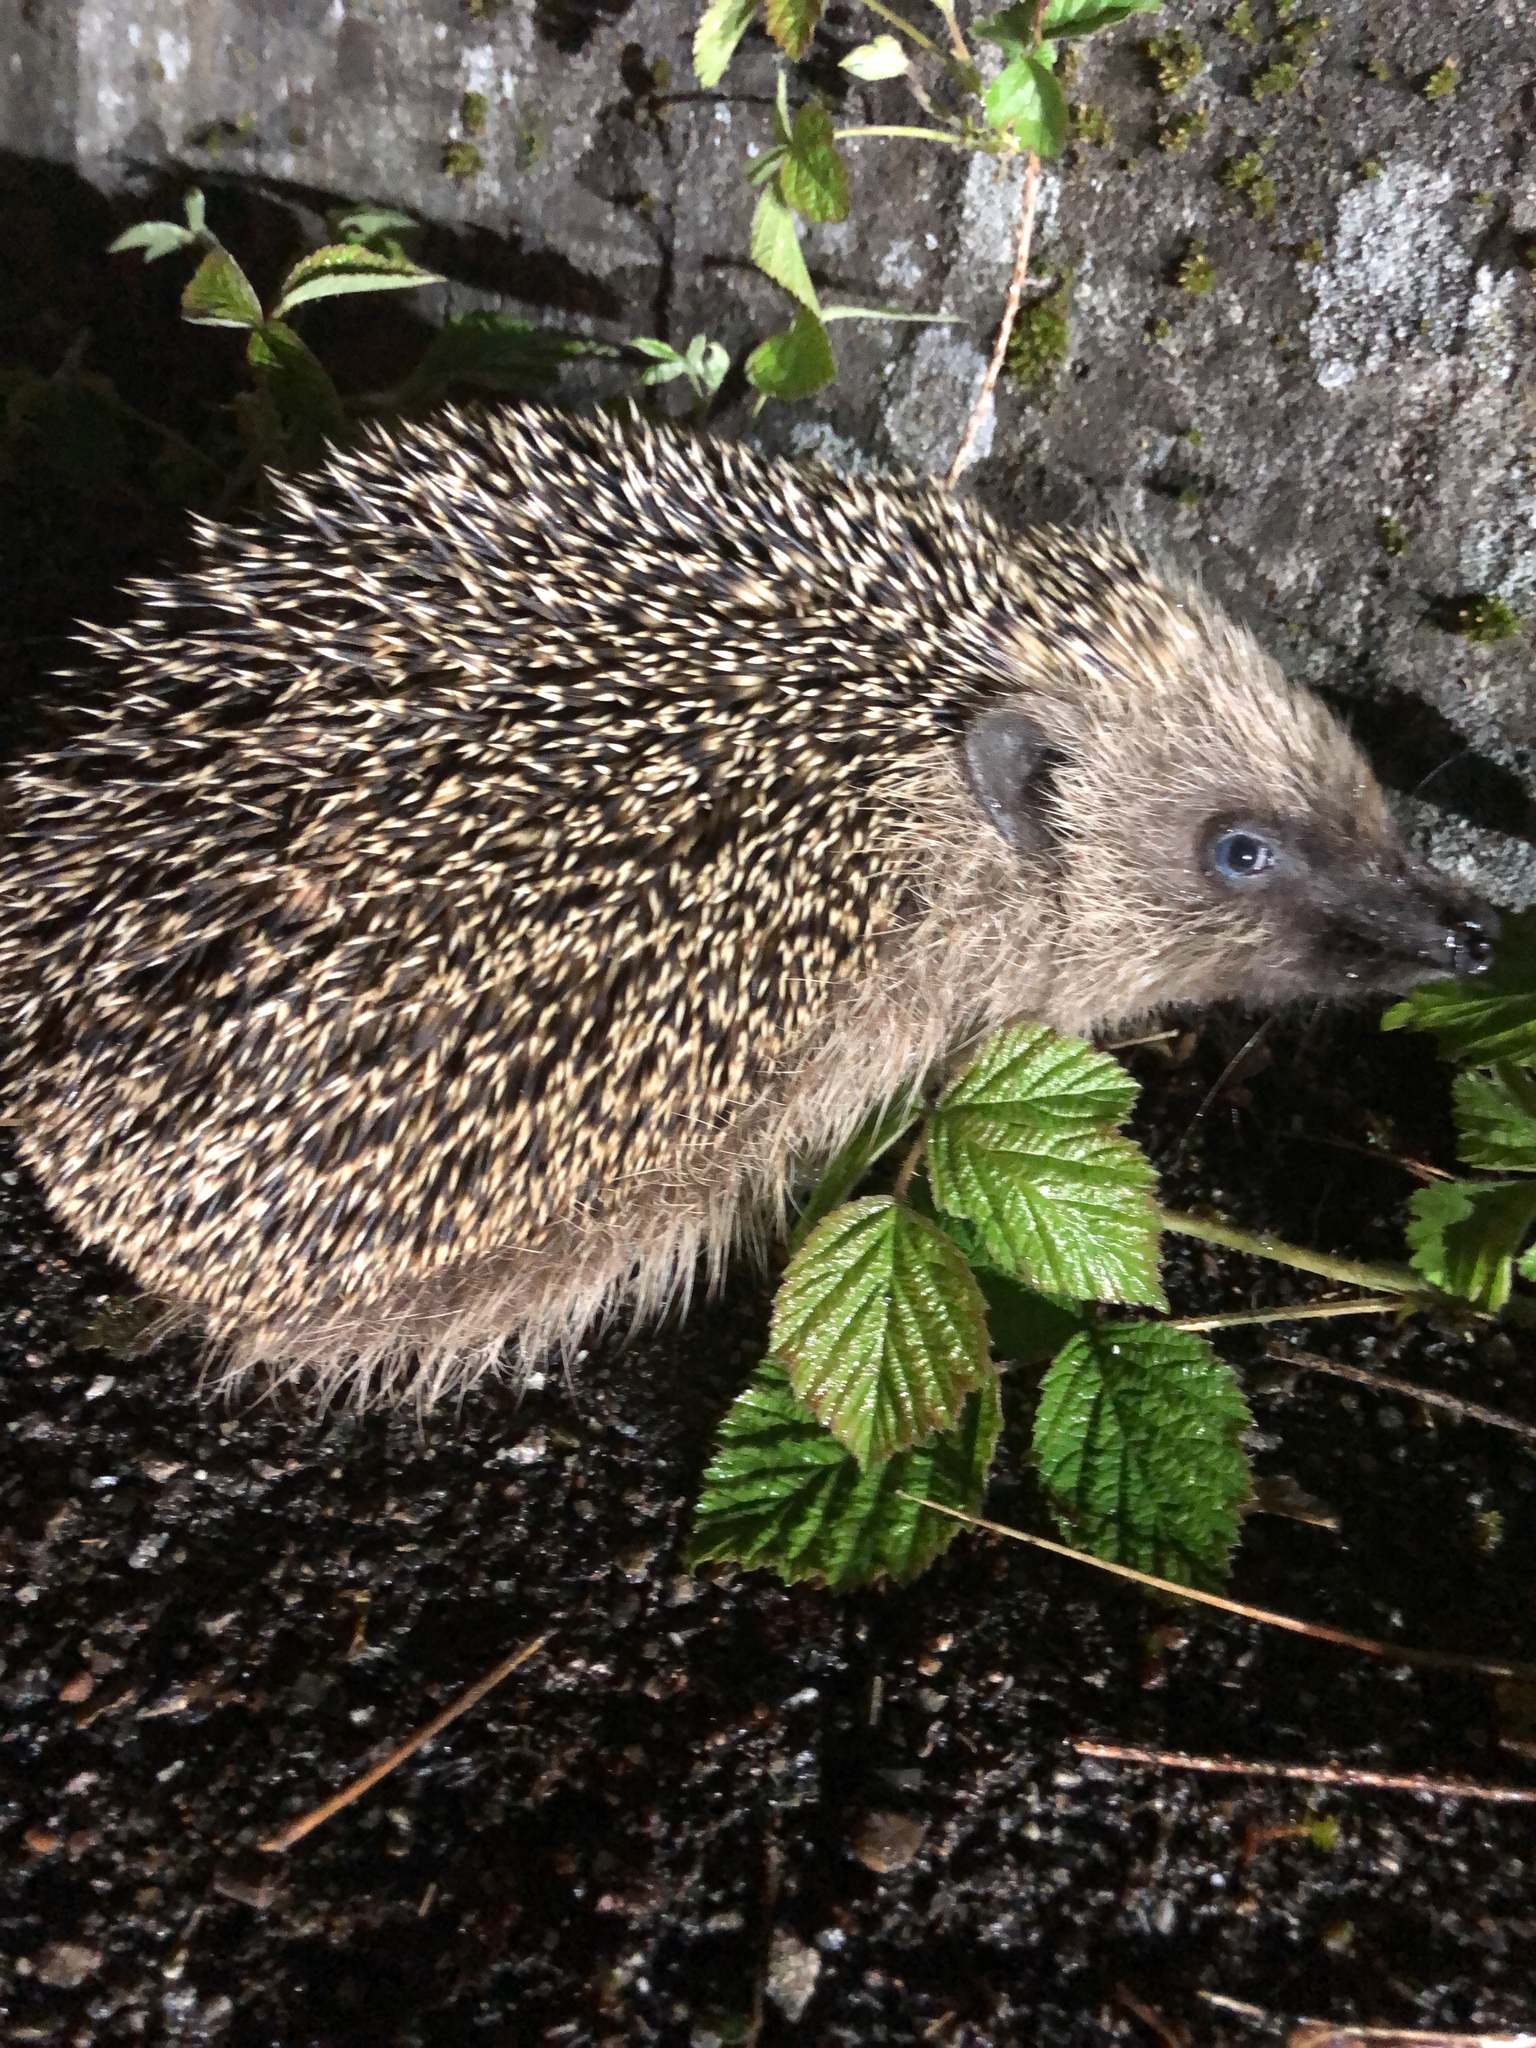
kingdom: Animalia
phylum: Chordata
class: Mammalia
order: Erinaceomorpha
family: Erinaceidae
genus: Erinaceus
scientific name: Erinaceus europaeus
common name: West european hedgehog
